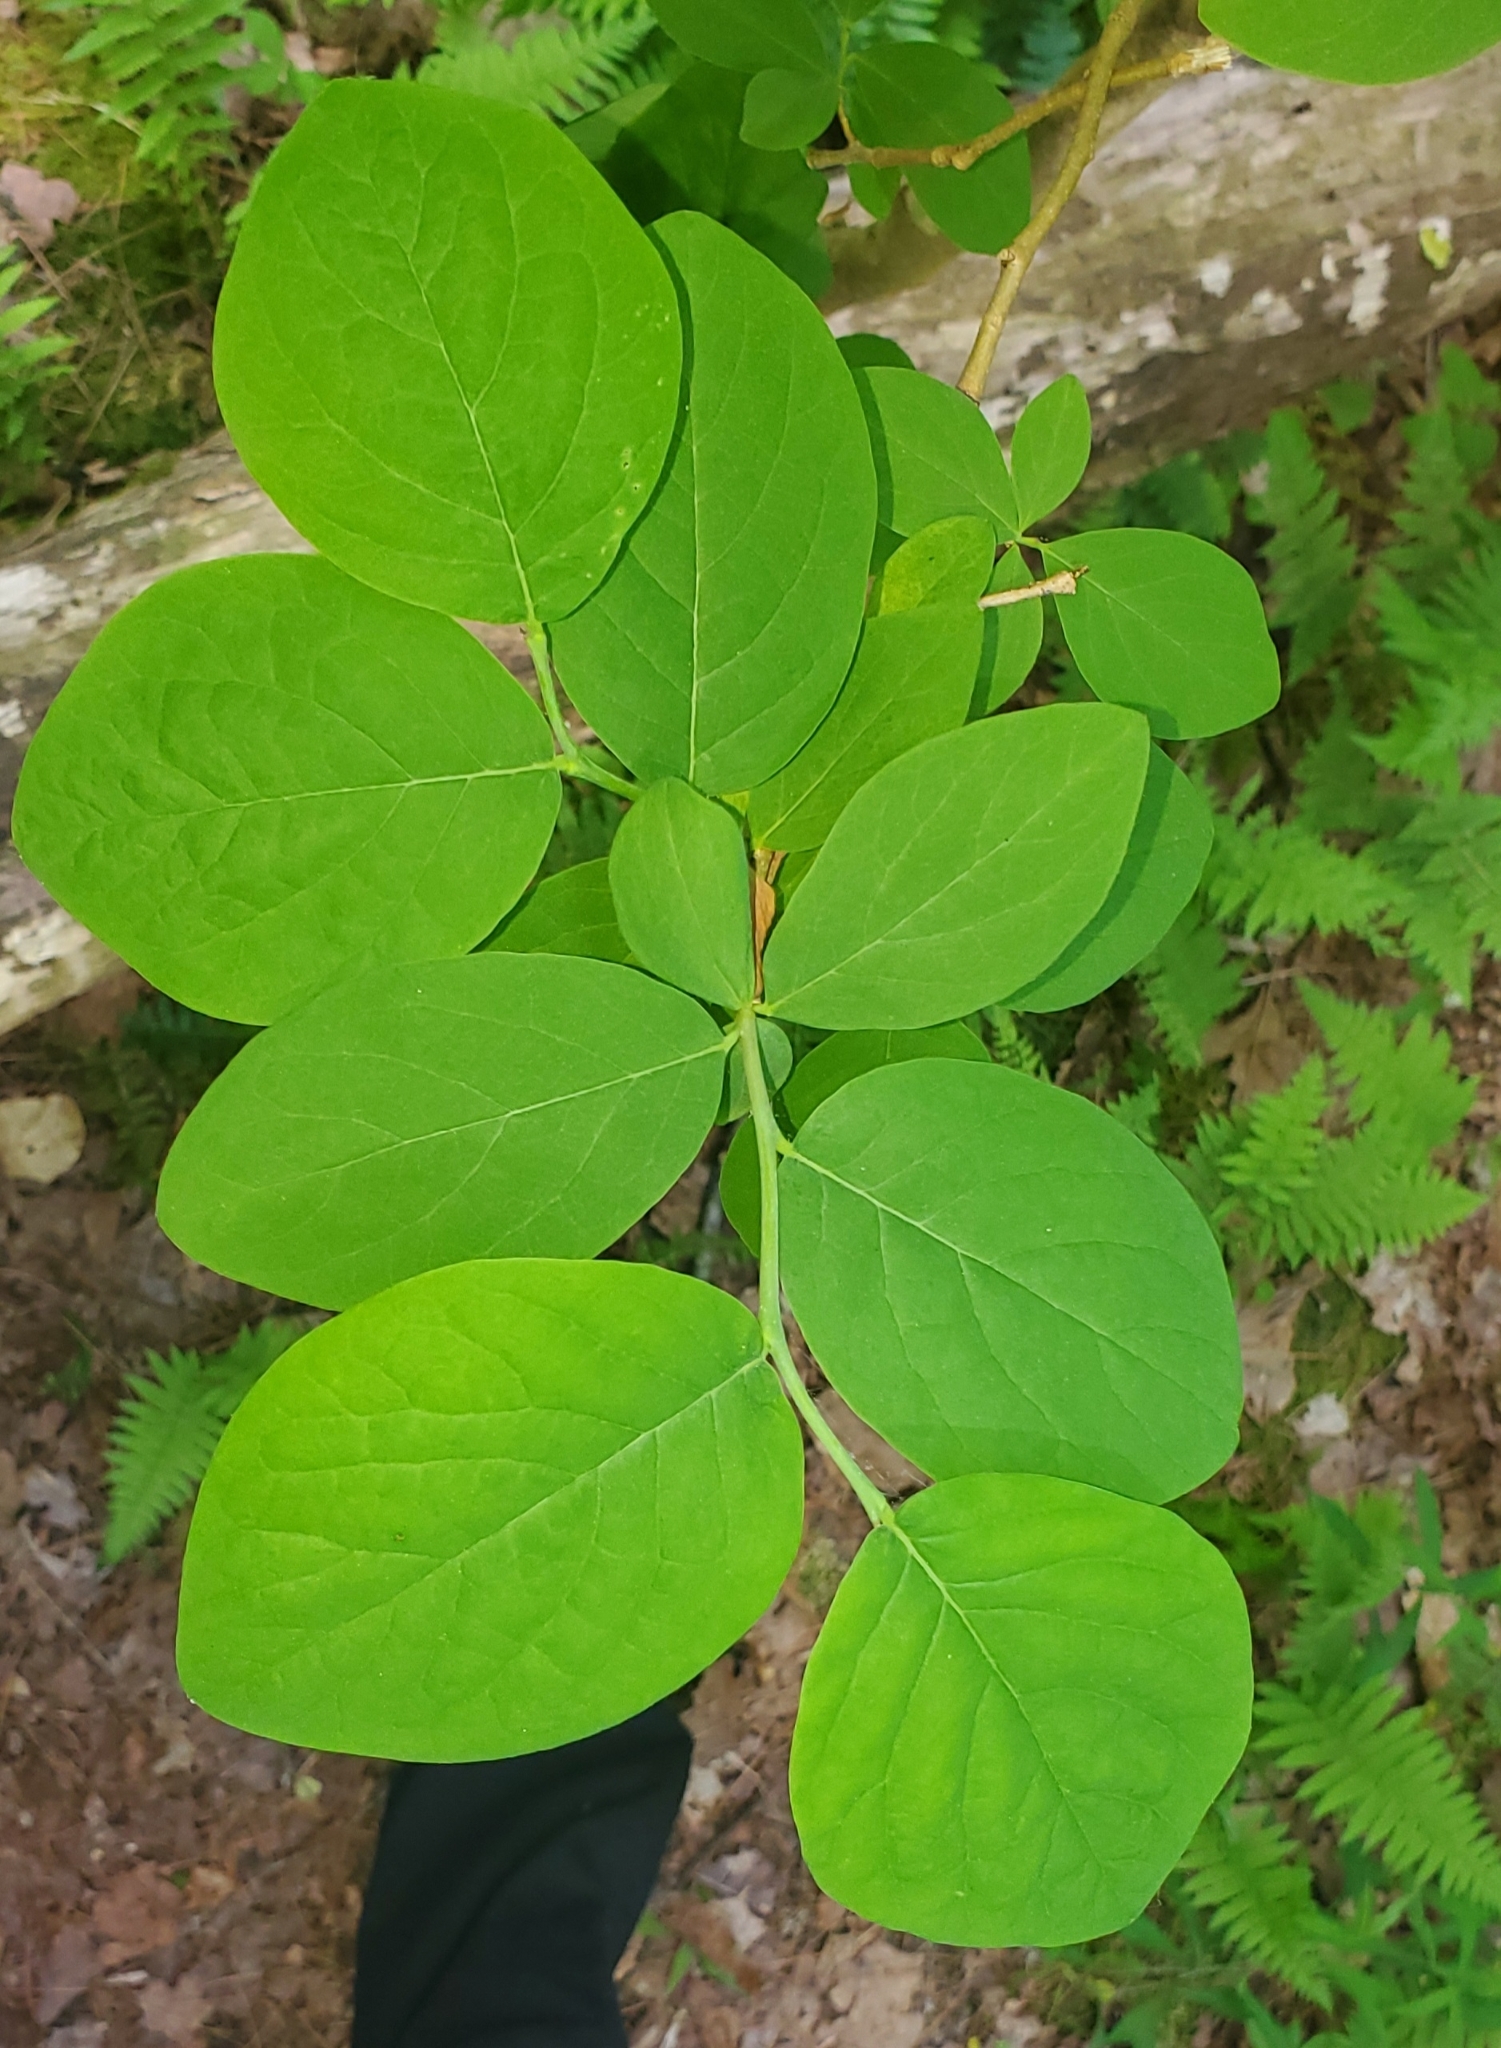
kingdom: Plantae
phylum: Tracheophyta
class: Magnoliopsida
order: Malvales
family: Thymelaeaceae
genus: Dirca
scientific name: Dirca palustris
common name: Leatherwood
